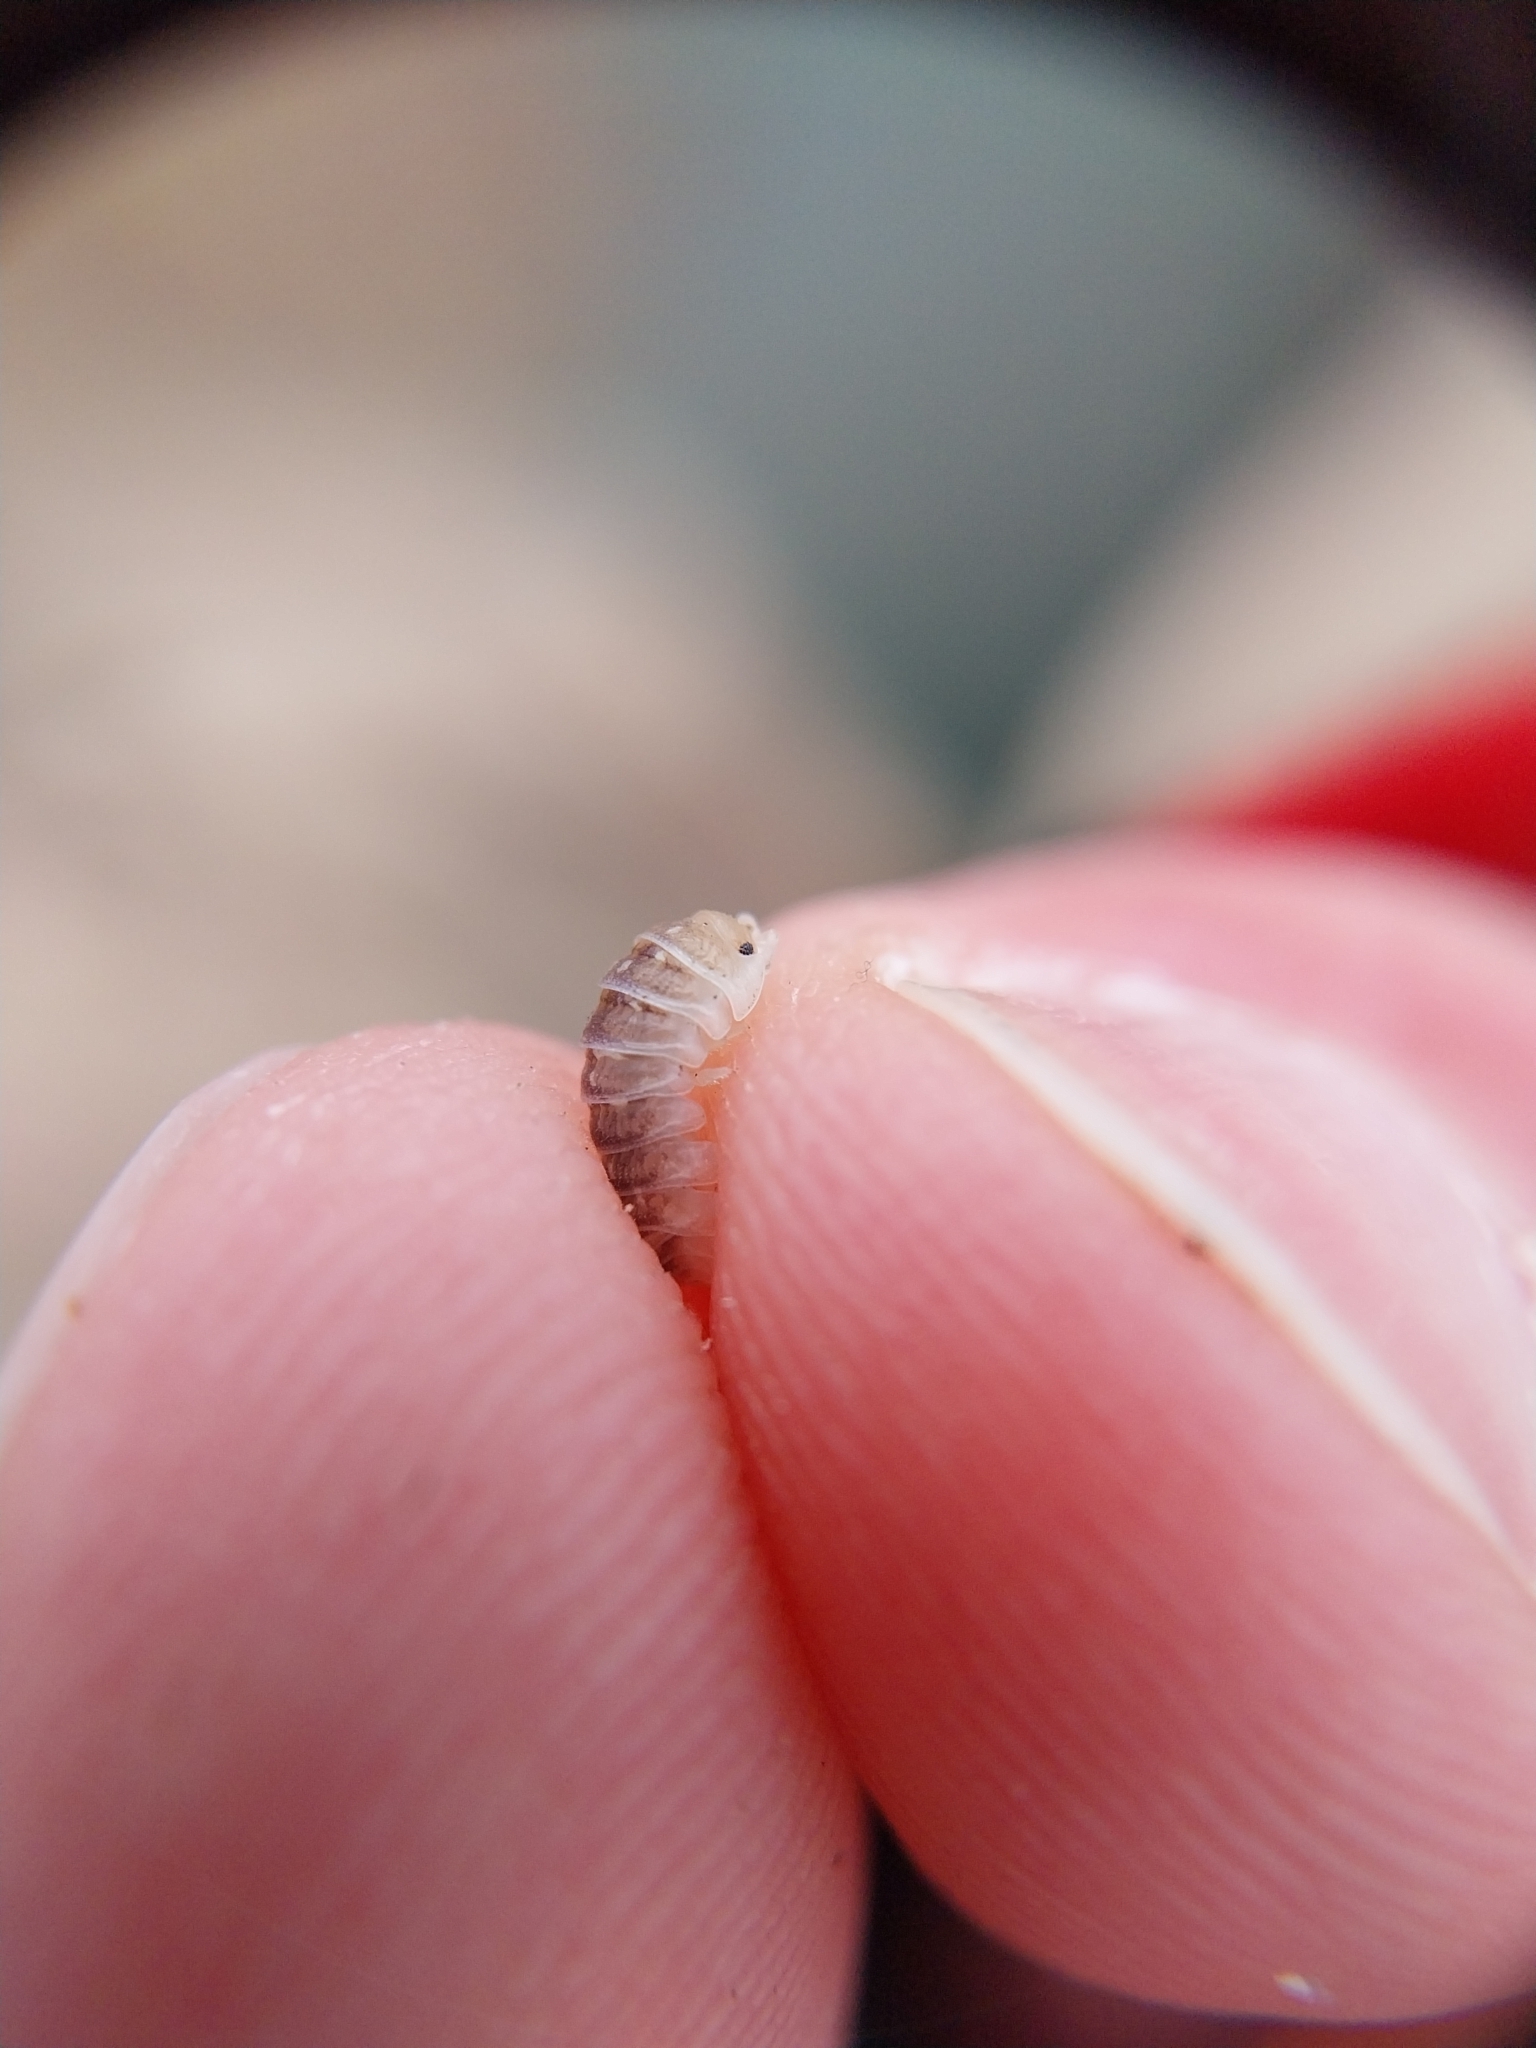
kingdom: Animalia
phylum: Arthropoda
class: Malacostraca
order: Isopoda
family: Armadillidiidae
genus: Armadillidium
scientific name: Armadillidium album
